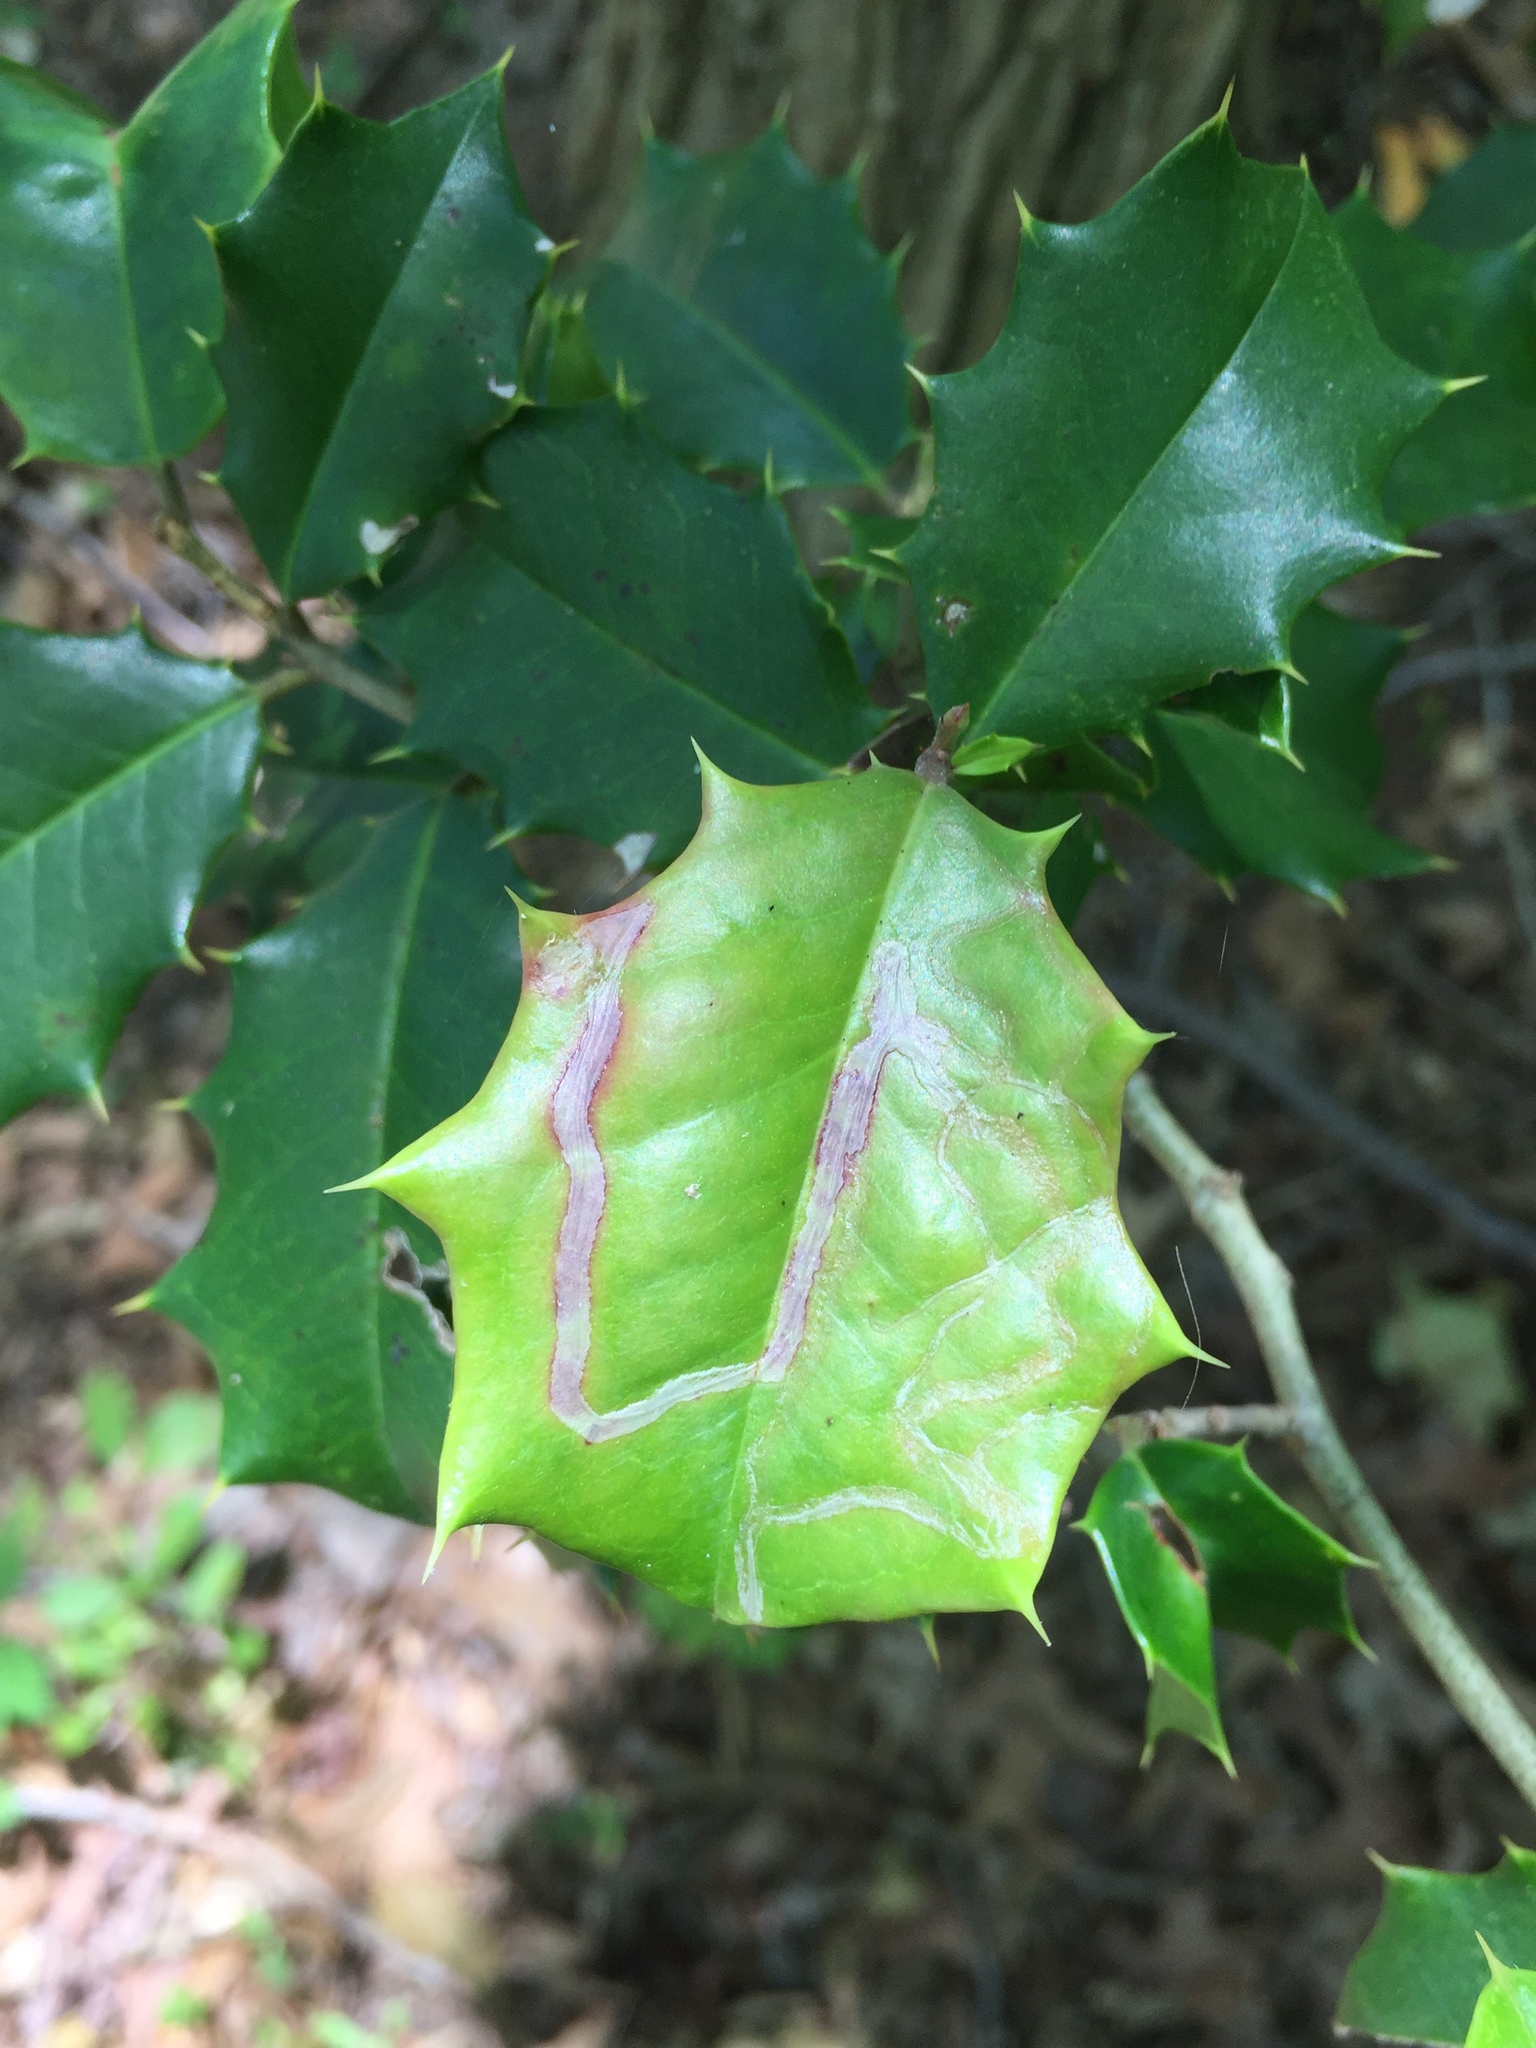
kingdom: Animalia
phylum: Arthropoda
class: Insecta
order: Diptera
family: Agromyzidae
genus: Phytomyza
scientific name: Phytomyza opacae
